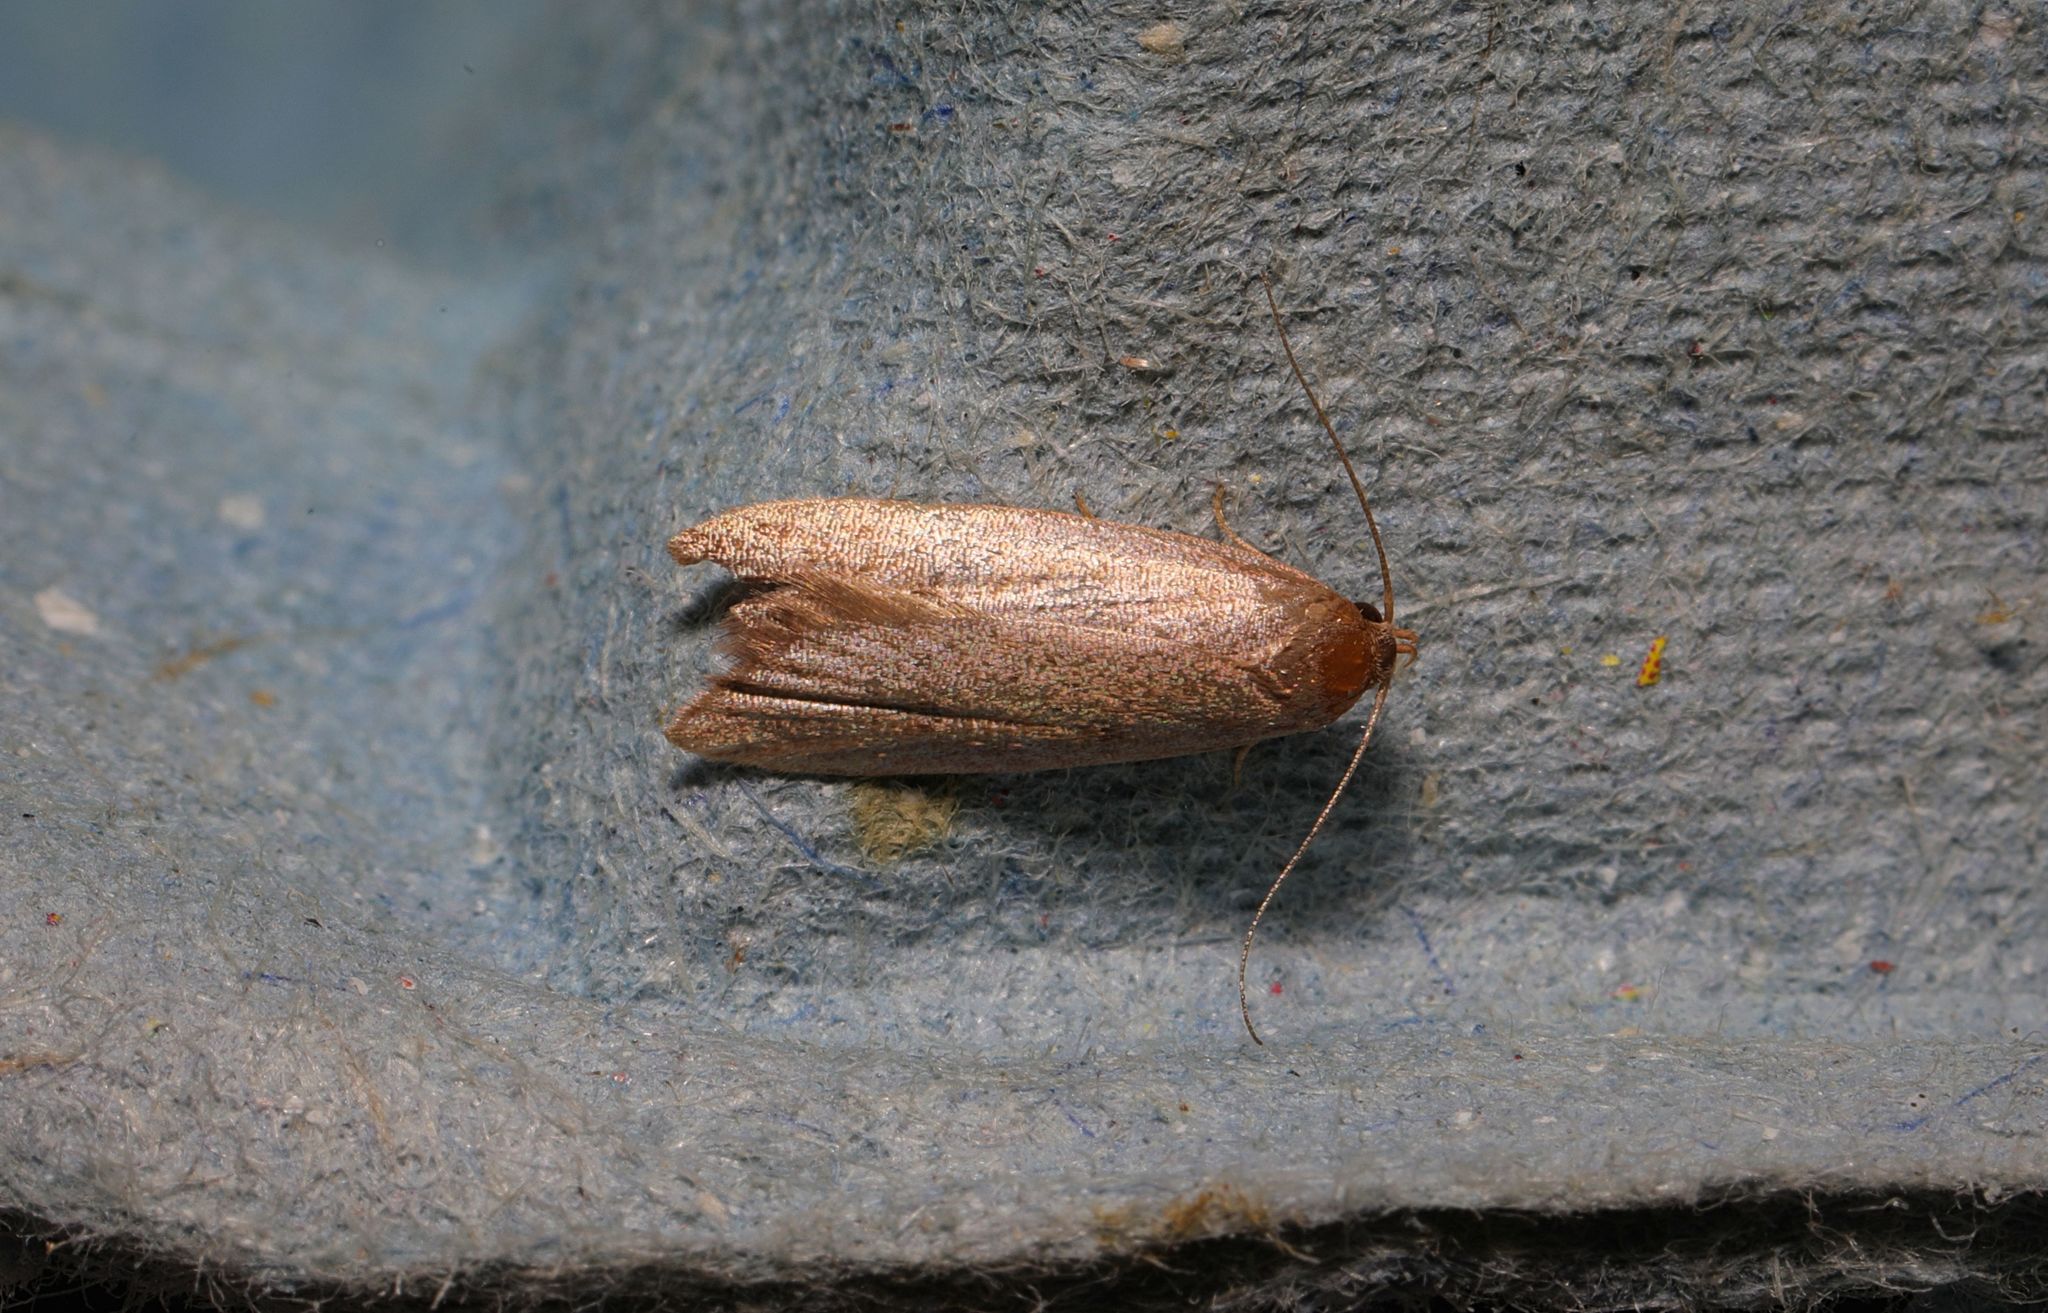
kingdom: Animalia
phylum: Arthropoda
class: Insecta
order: Lepidoptera
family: Oecophoridae
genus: Tachystola
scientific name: Tachystola acroxantha
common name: Ruddy streak
